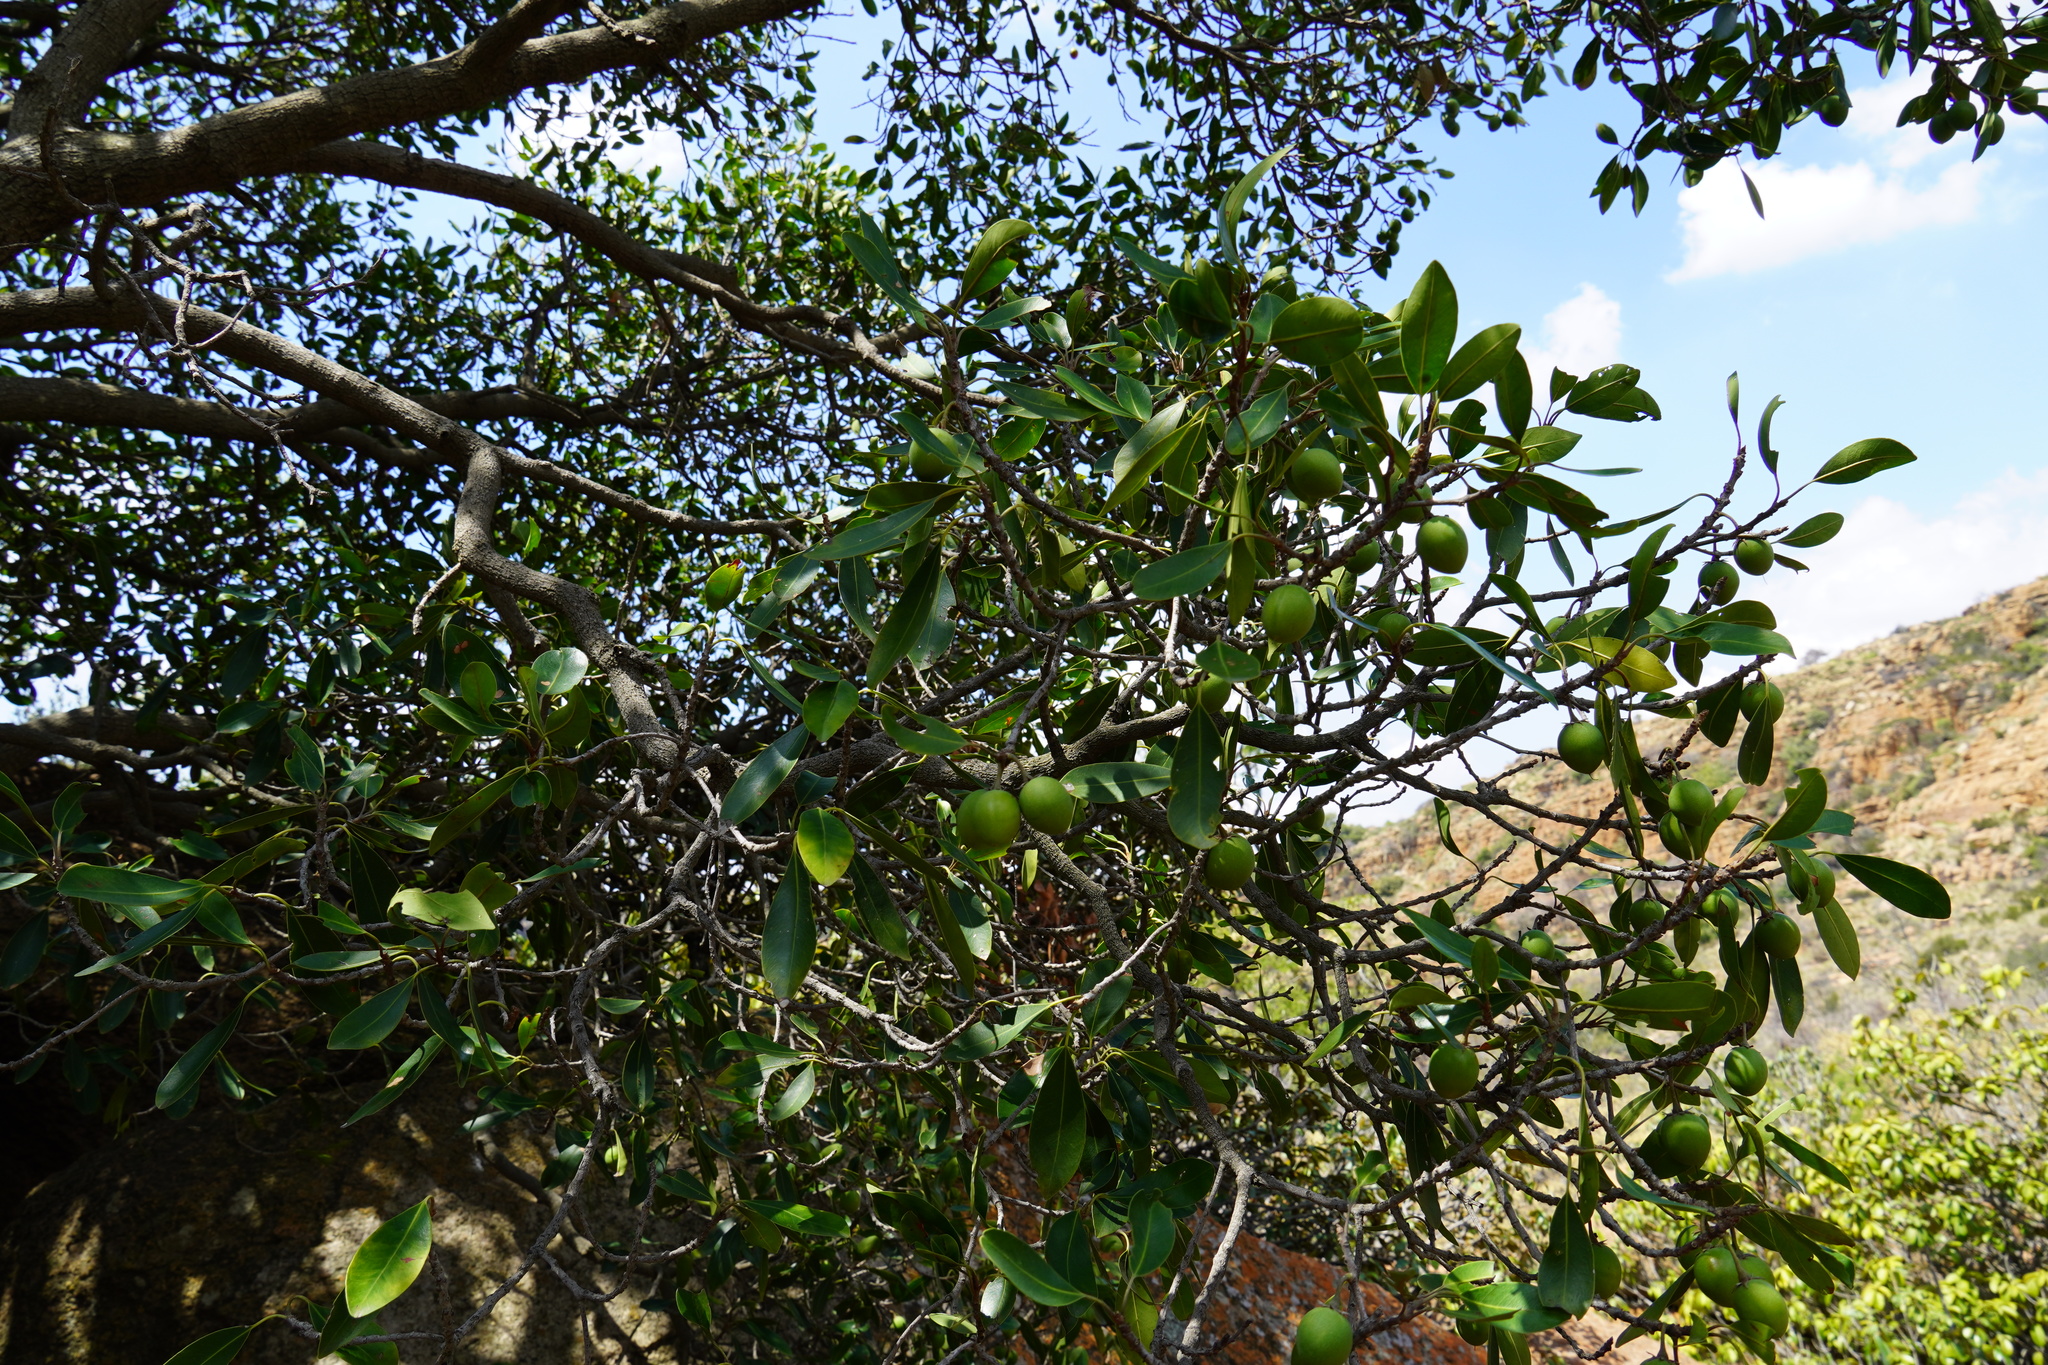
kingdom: Plantae
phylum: Tracheophyta
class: Magnoliopsida
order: Ericales
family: Sapotaceae
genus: Mimusops
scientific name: Mimusops zeyheri
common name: Transvaal red milkwood
